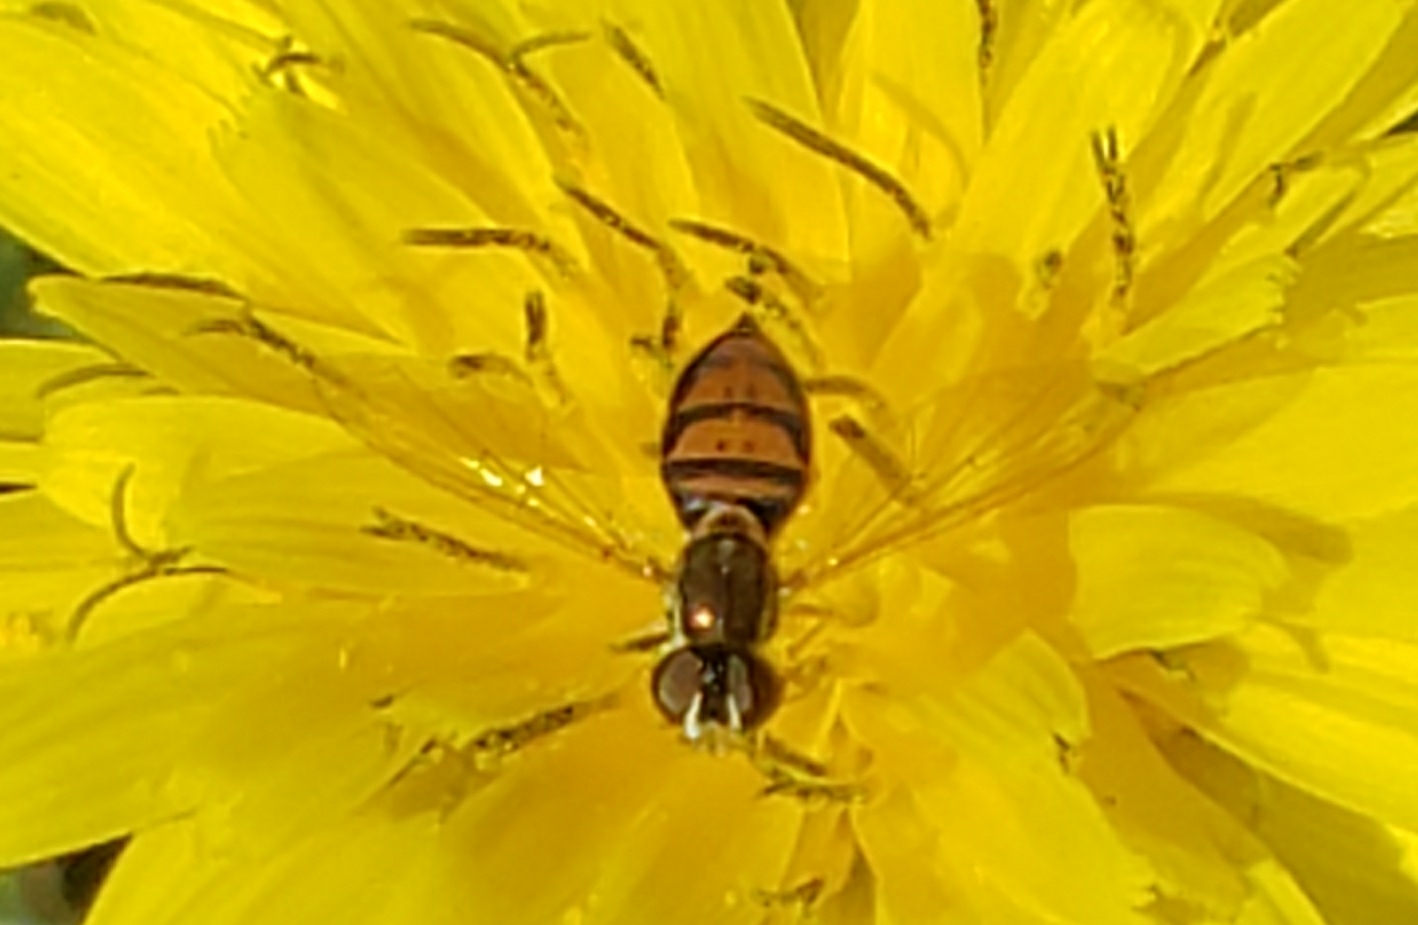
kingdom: Animalia
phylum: Arthropoda
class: Insecta
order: Diptera
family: Syrphidae
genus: Toxomerus
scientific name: Toxomerus marginatus
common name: Syrphid fly
